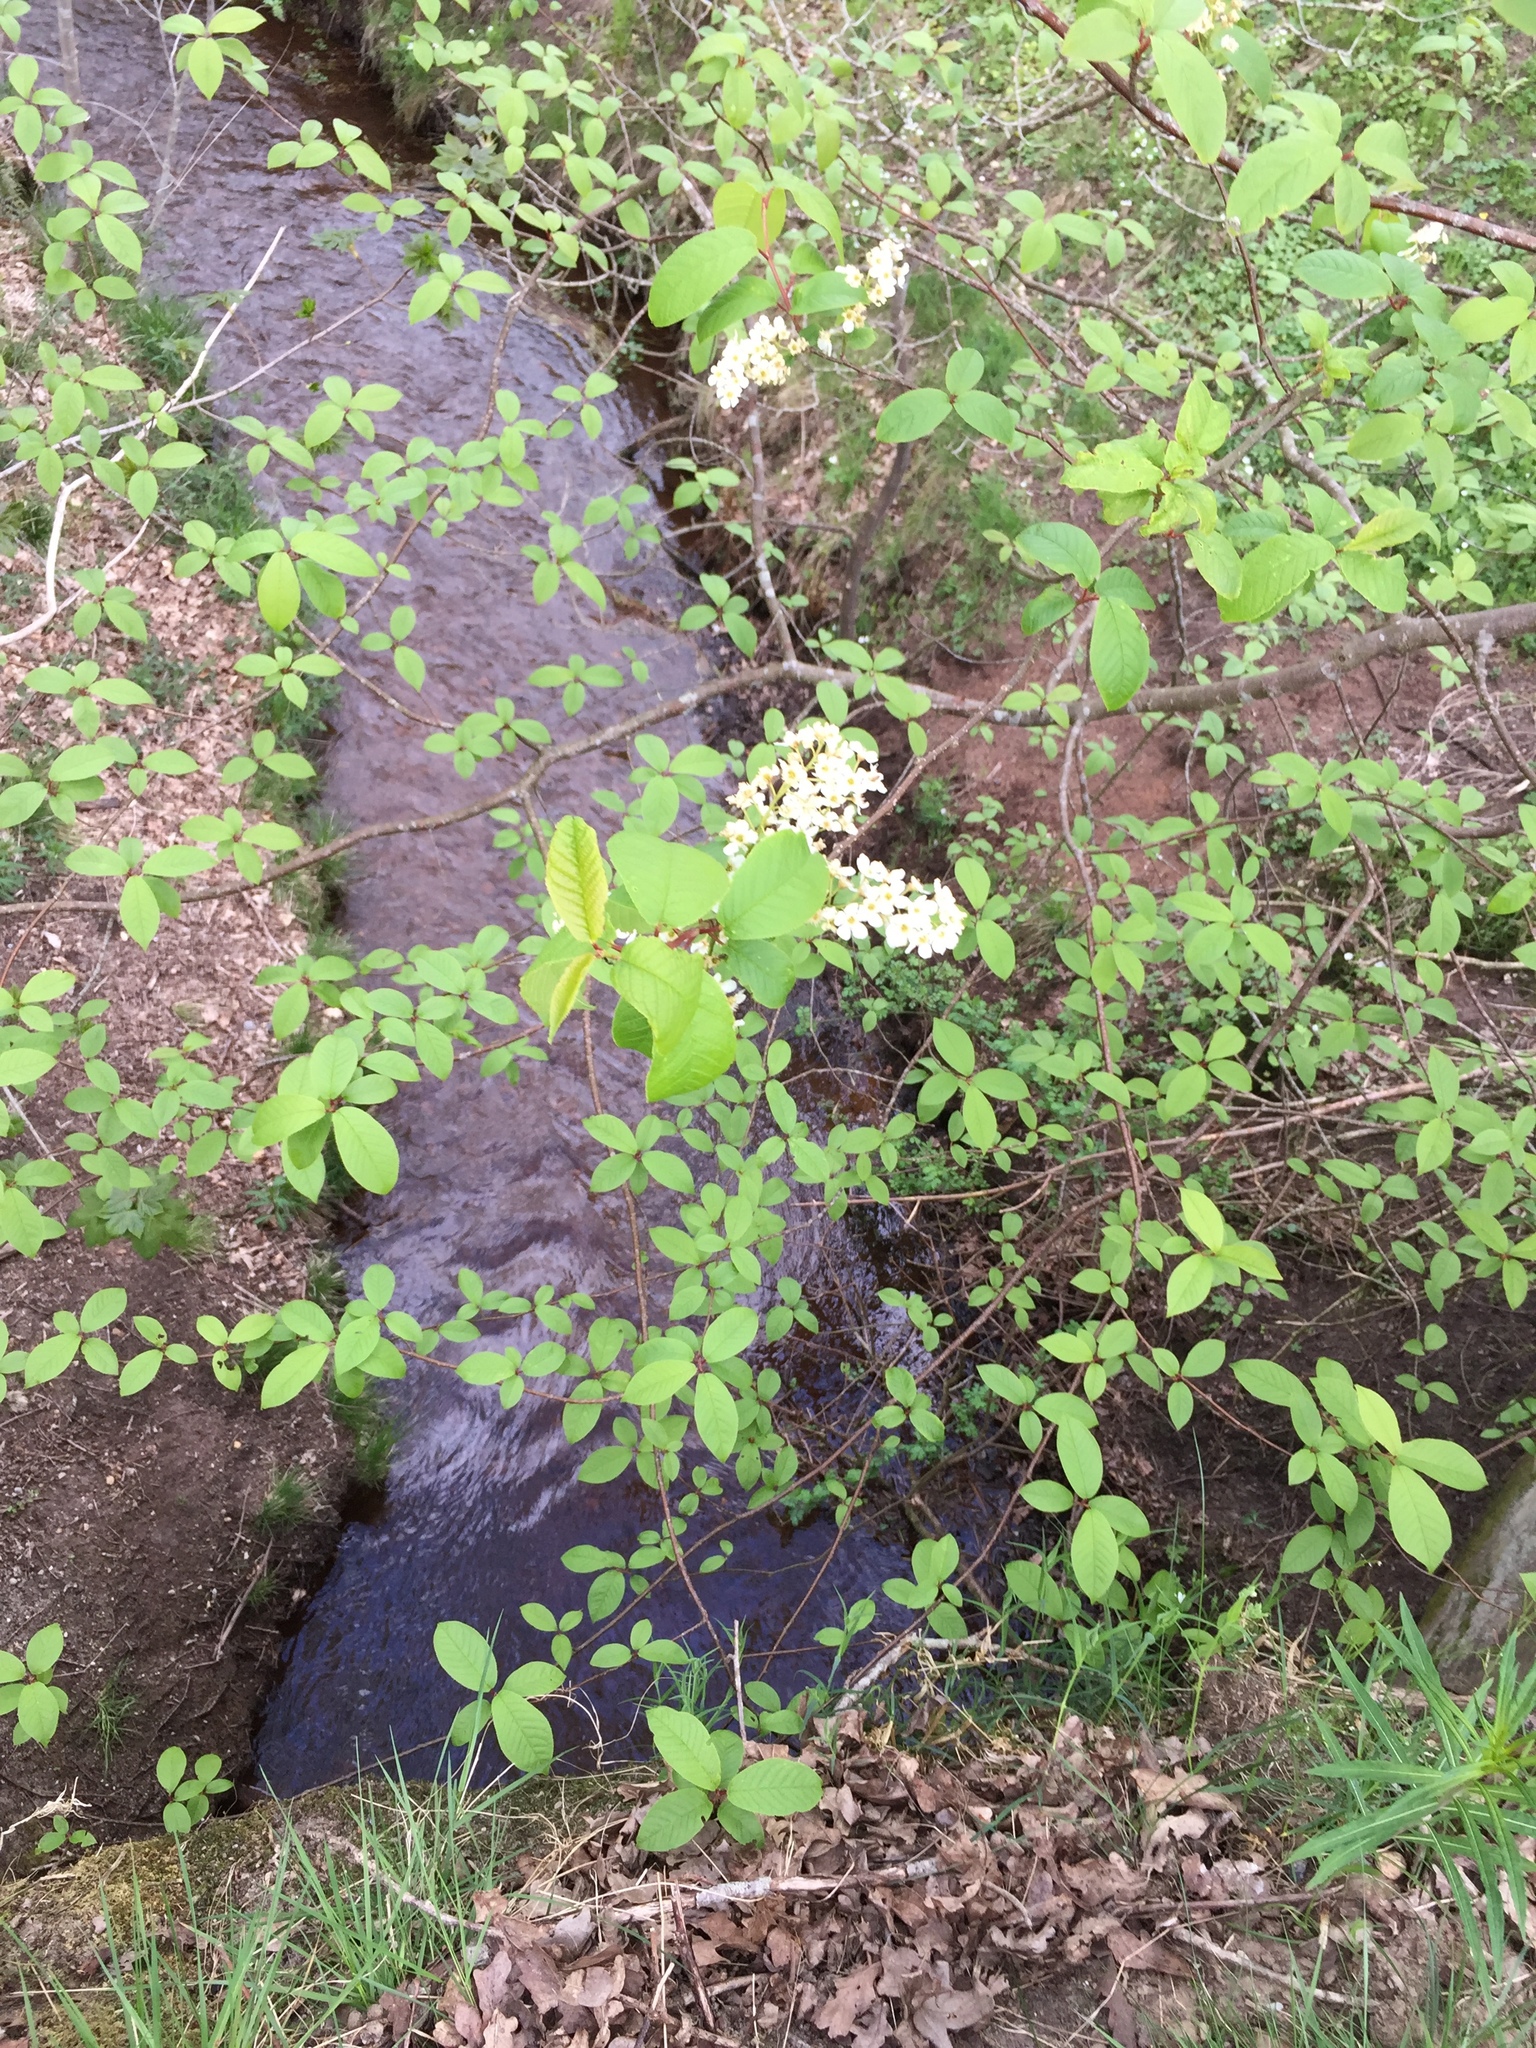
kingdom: Plantae
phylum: Tracheophyta
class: Magnoliopsida
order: Rosales
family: Rosaceae
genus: Prunus
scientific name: Prunus padus
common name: Bird cherry
